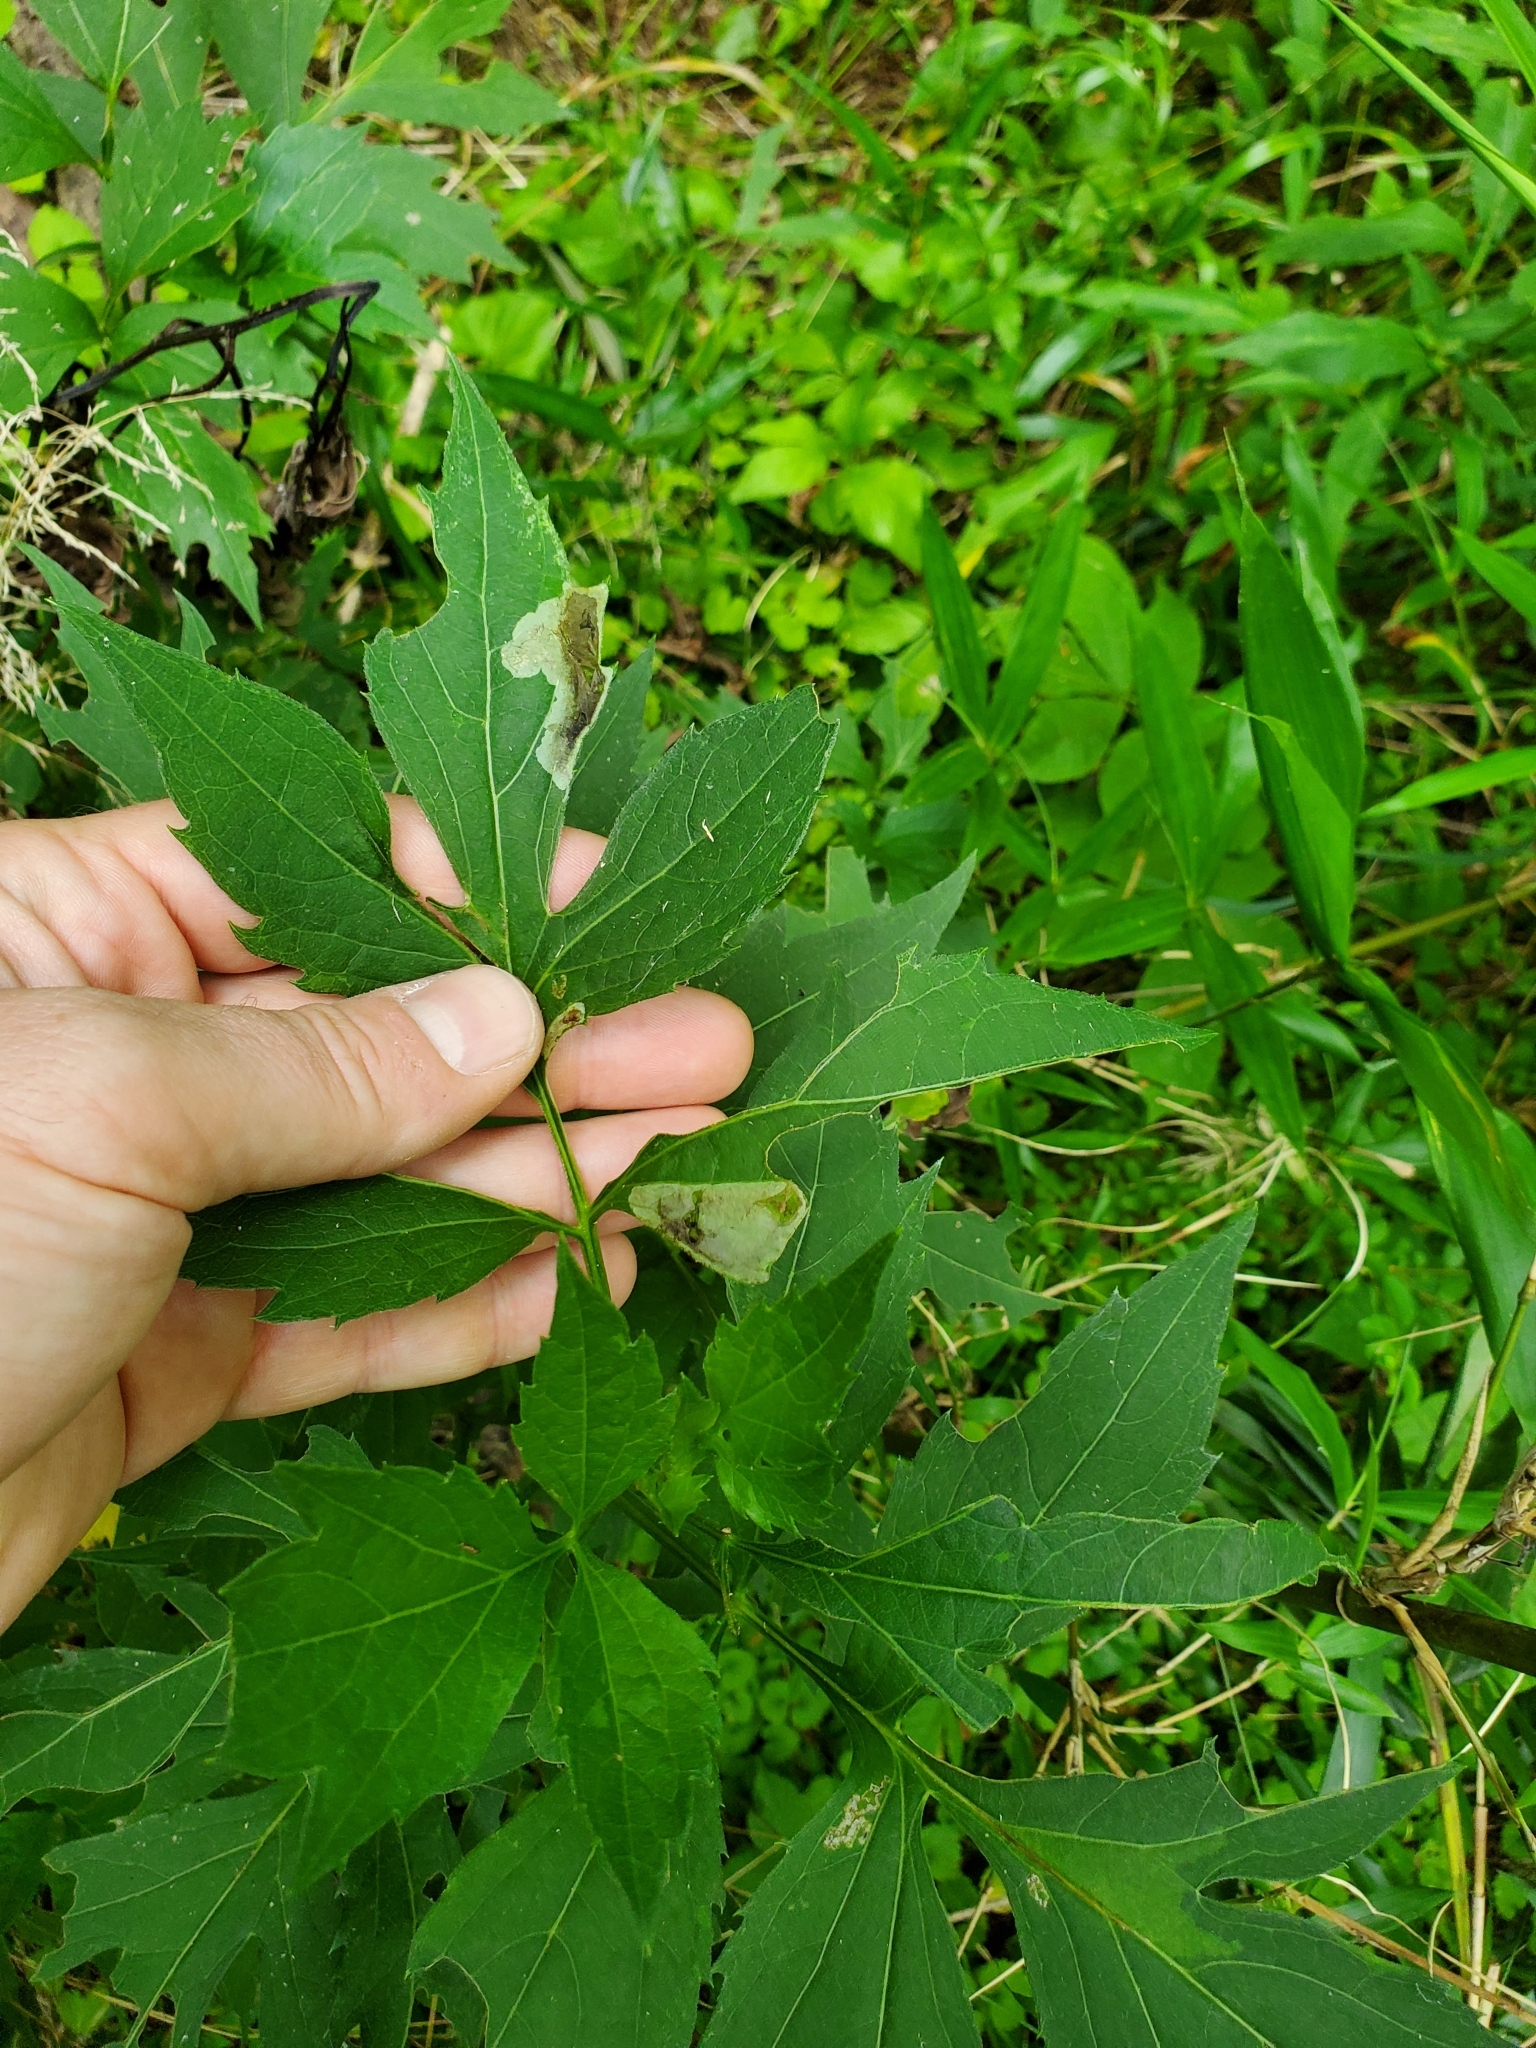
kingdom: Plantae
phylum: Tracheophyta
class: Magnoliopsida
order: Asterales
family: Asteraceae
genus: Rudbeckia
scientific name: Rudbeckia laciniata
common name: Coneflower
